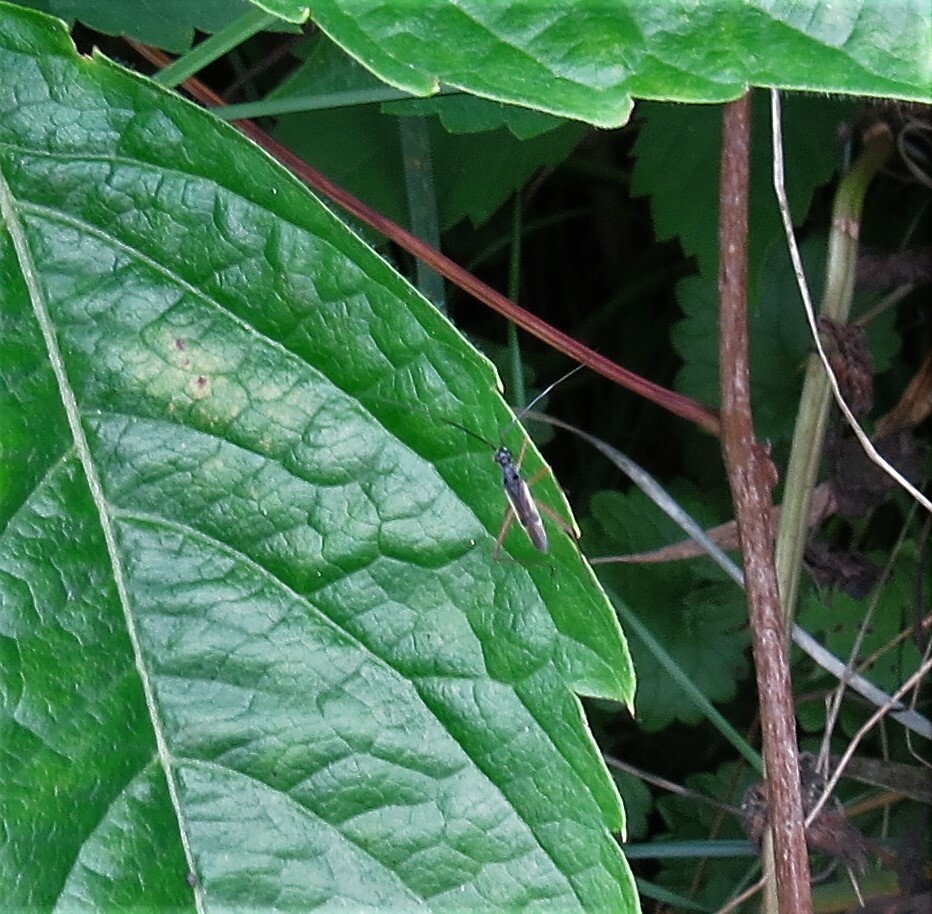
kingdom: Animalia
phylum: Arthropoda
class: Insecta
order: Hemiptera
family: Miridae
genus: Collaria
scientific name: Collaria meilleurii
